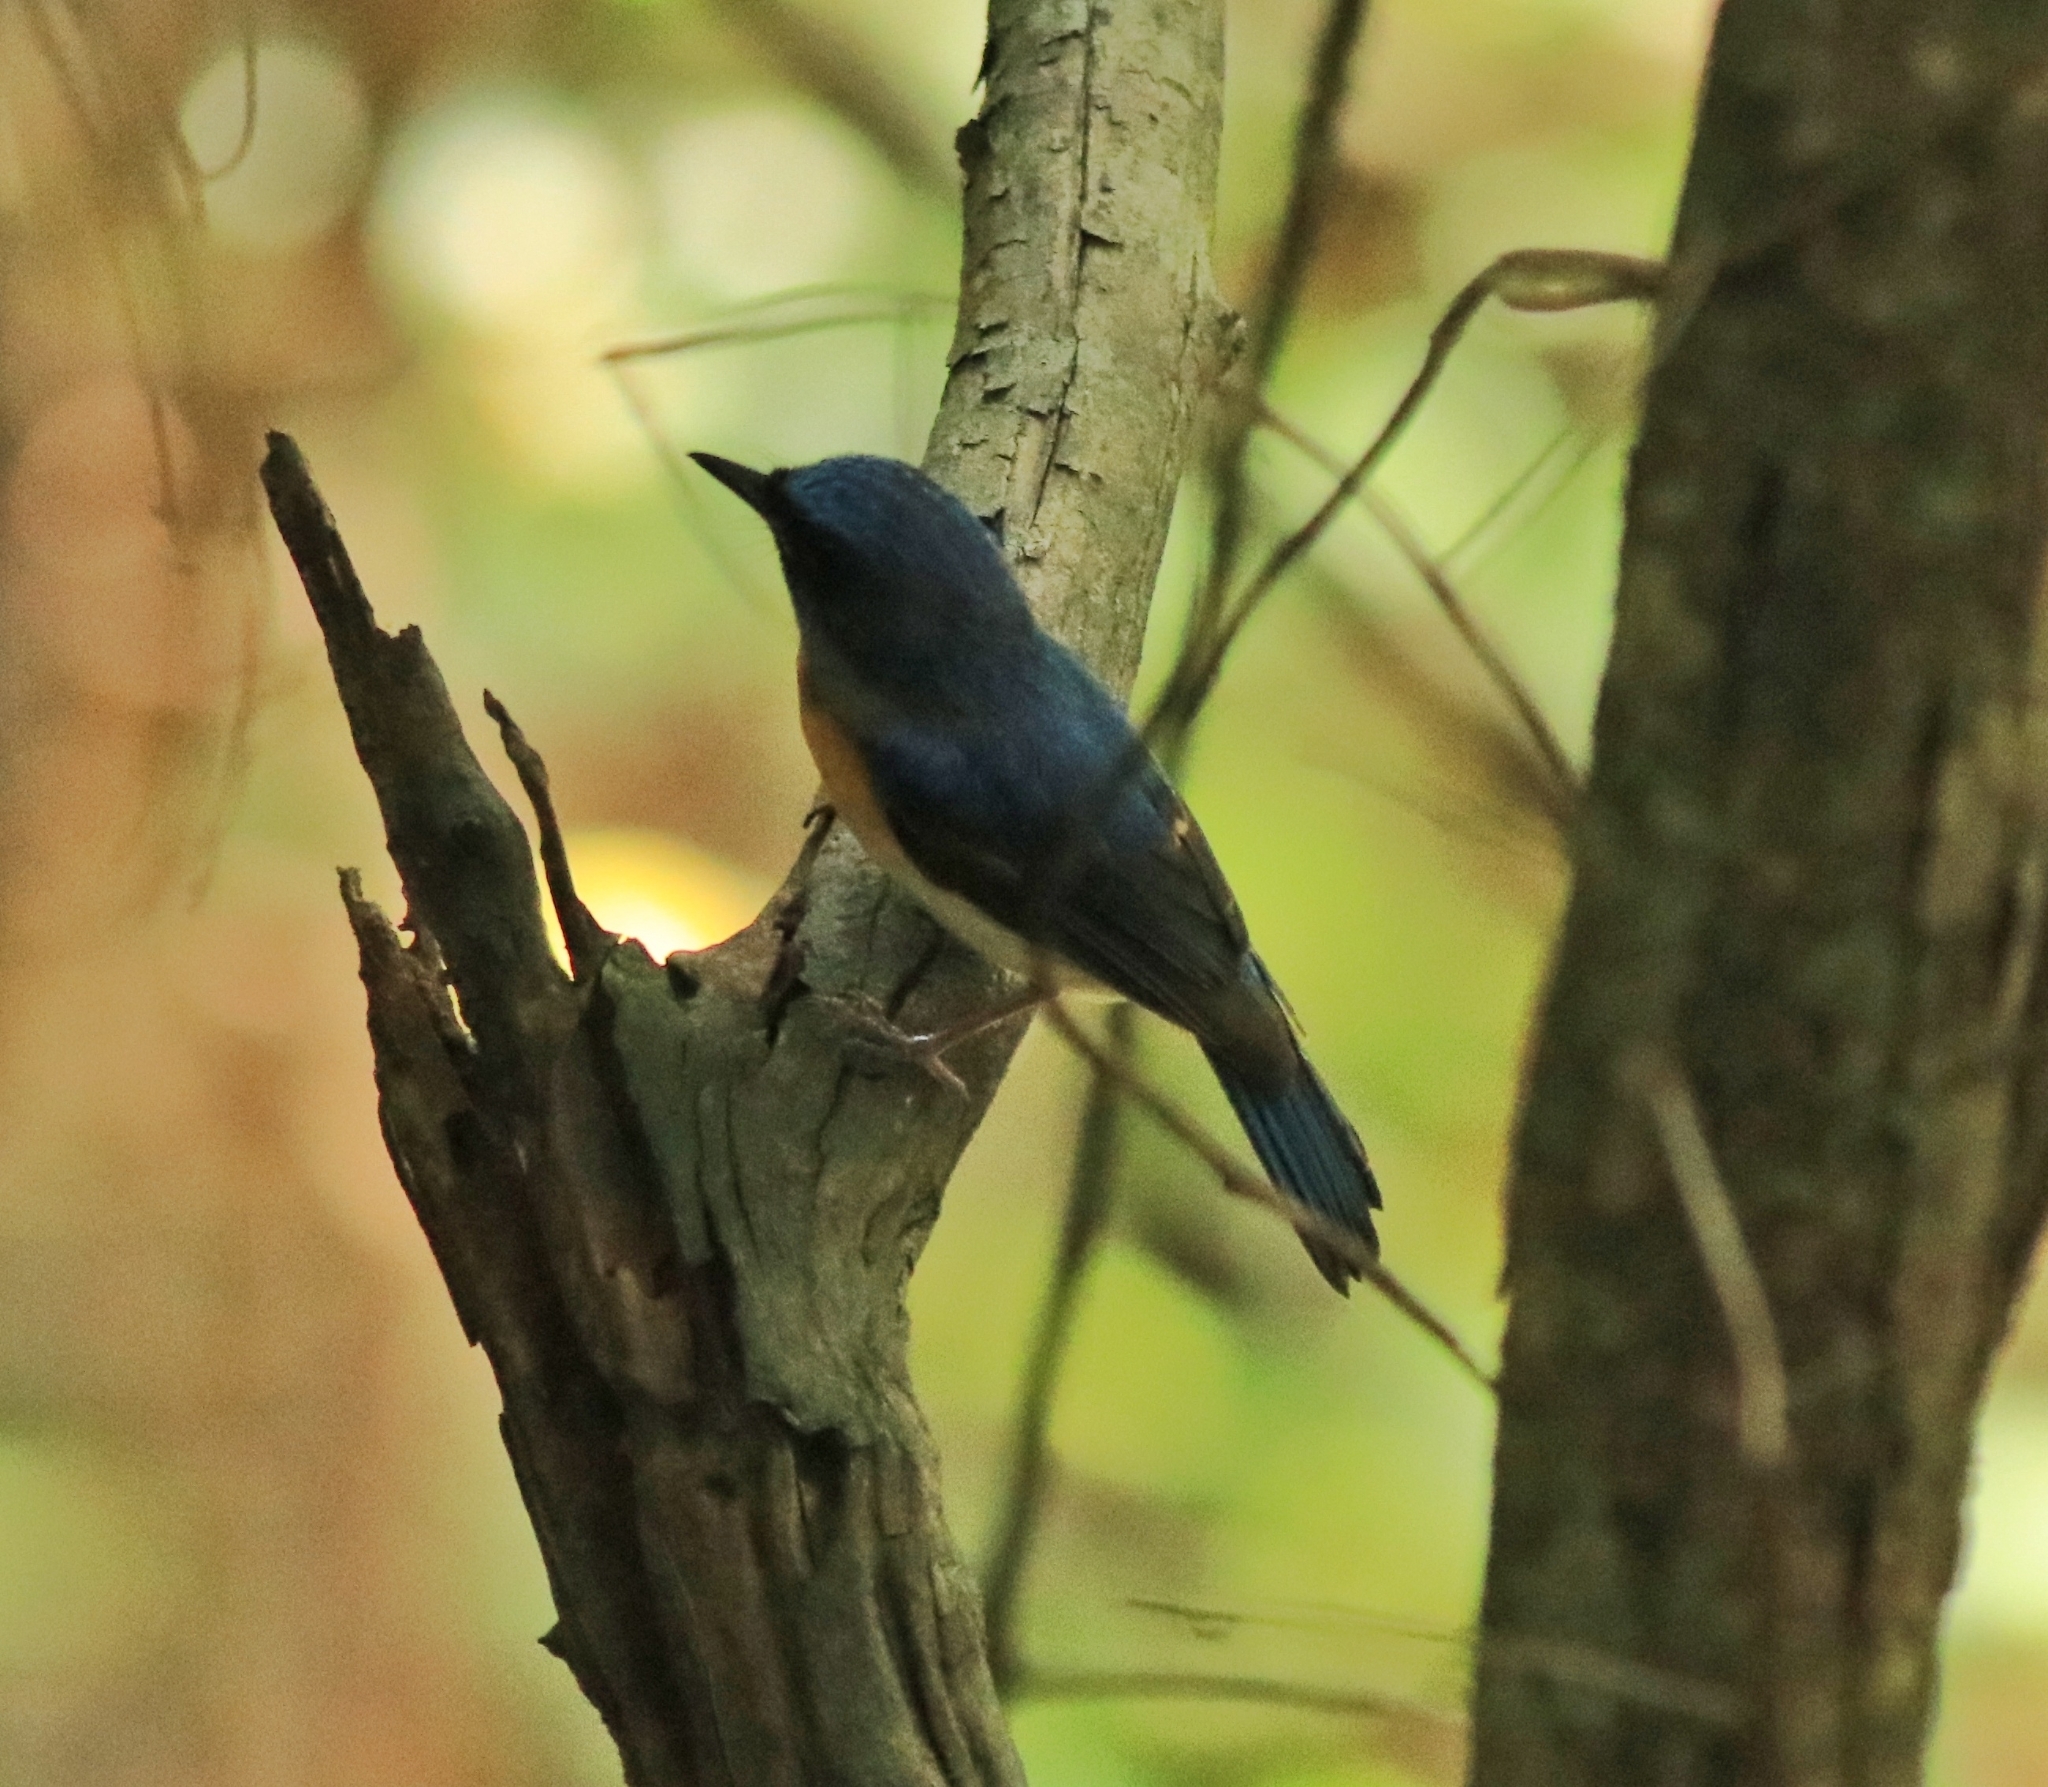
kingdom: Animalia
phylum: Chordata
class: Aves
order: Passeriformes
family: Muscicapidae
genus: Cyornis
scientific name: Cyornis rubeculoides
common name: Blue-throated blue flycatcher
